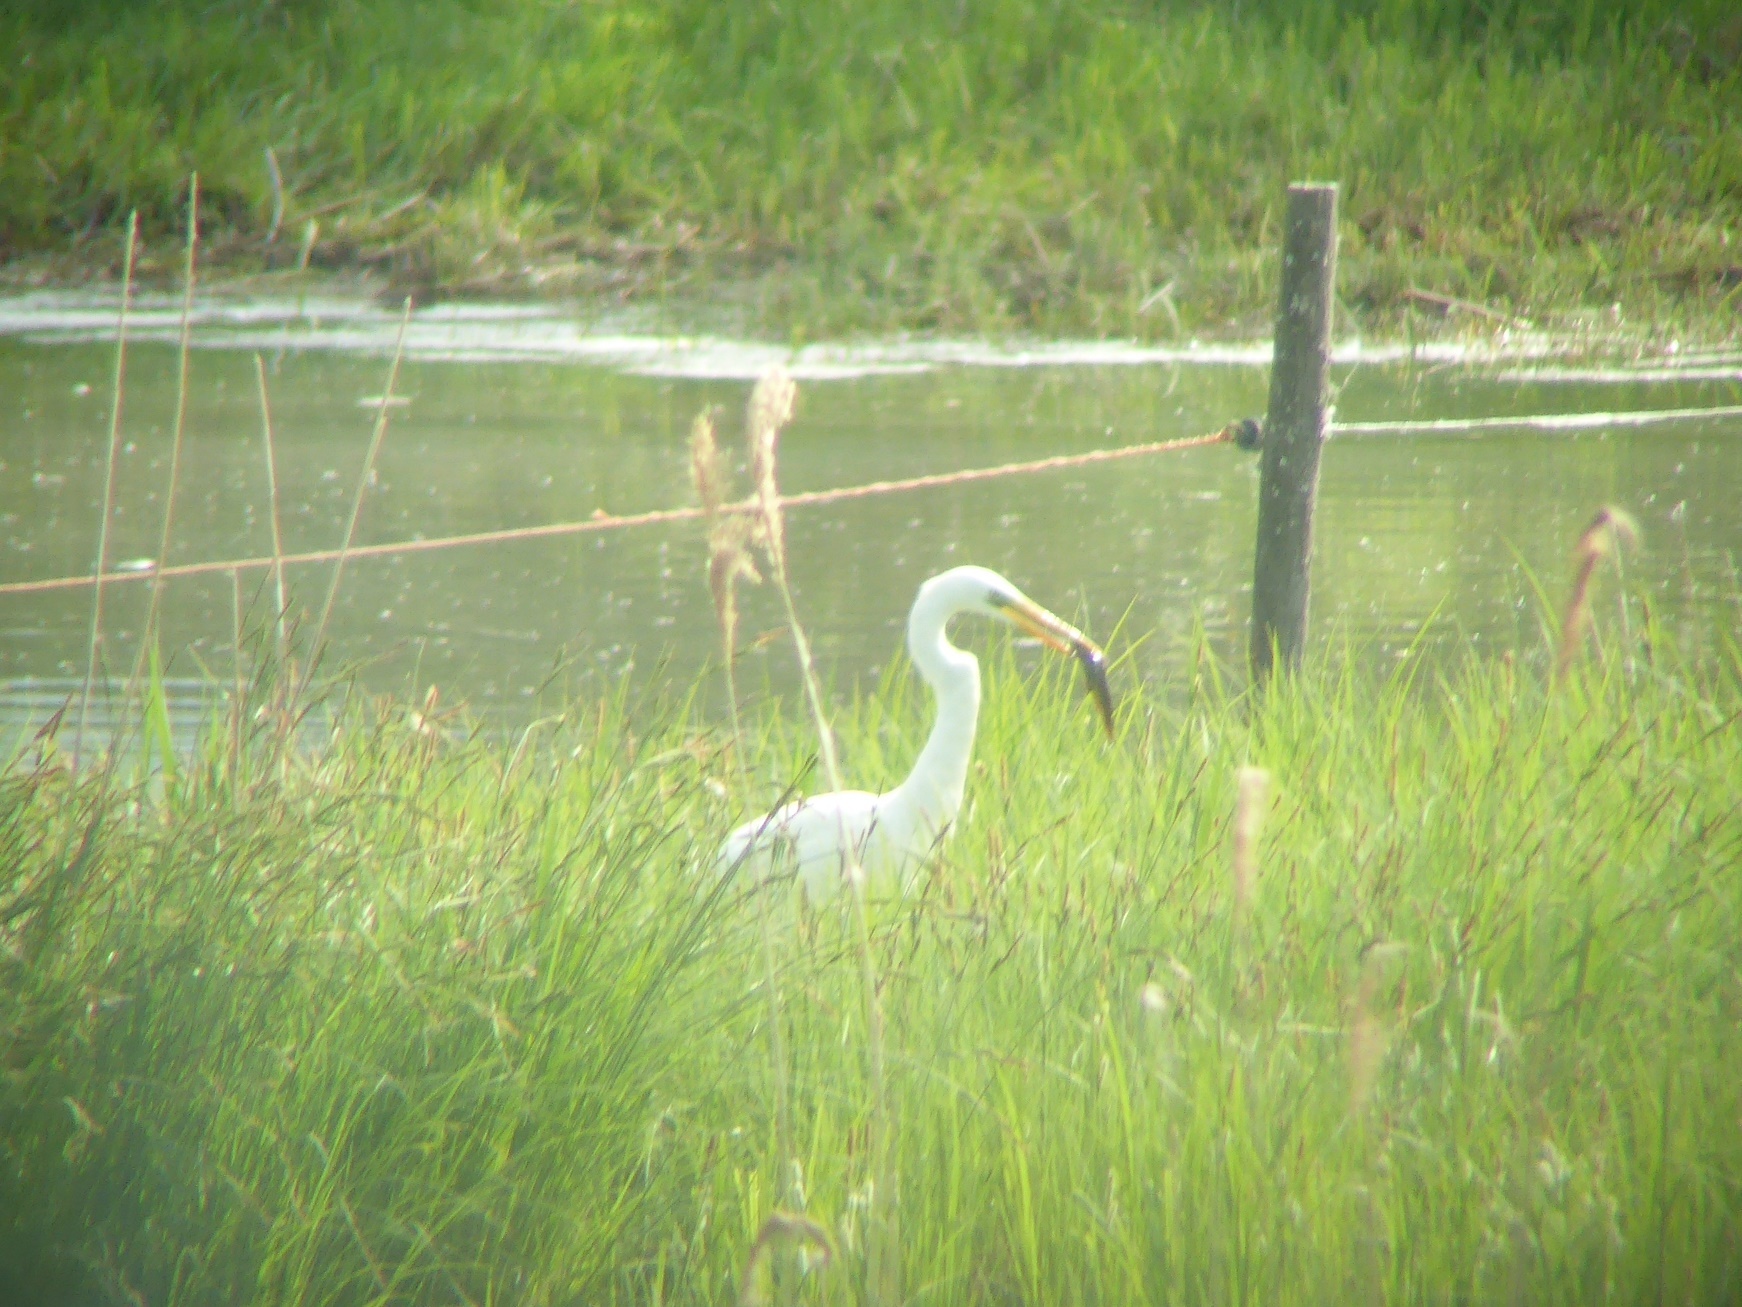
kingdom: Animalia
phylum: Chordata
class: Aves
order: Pelecaniformes
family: Ardeidae
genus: Ardea
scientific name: Ardea alba
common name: Great egret
